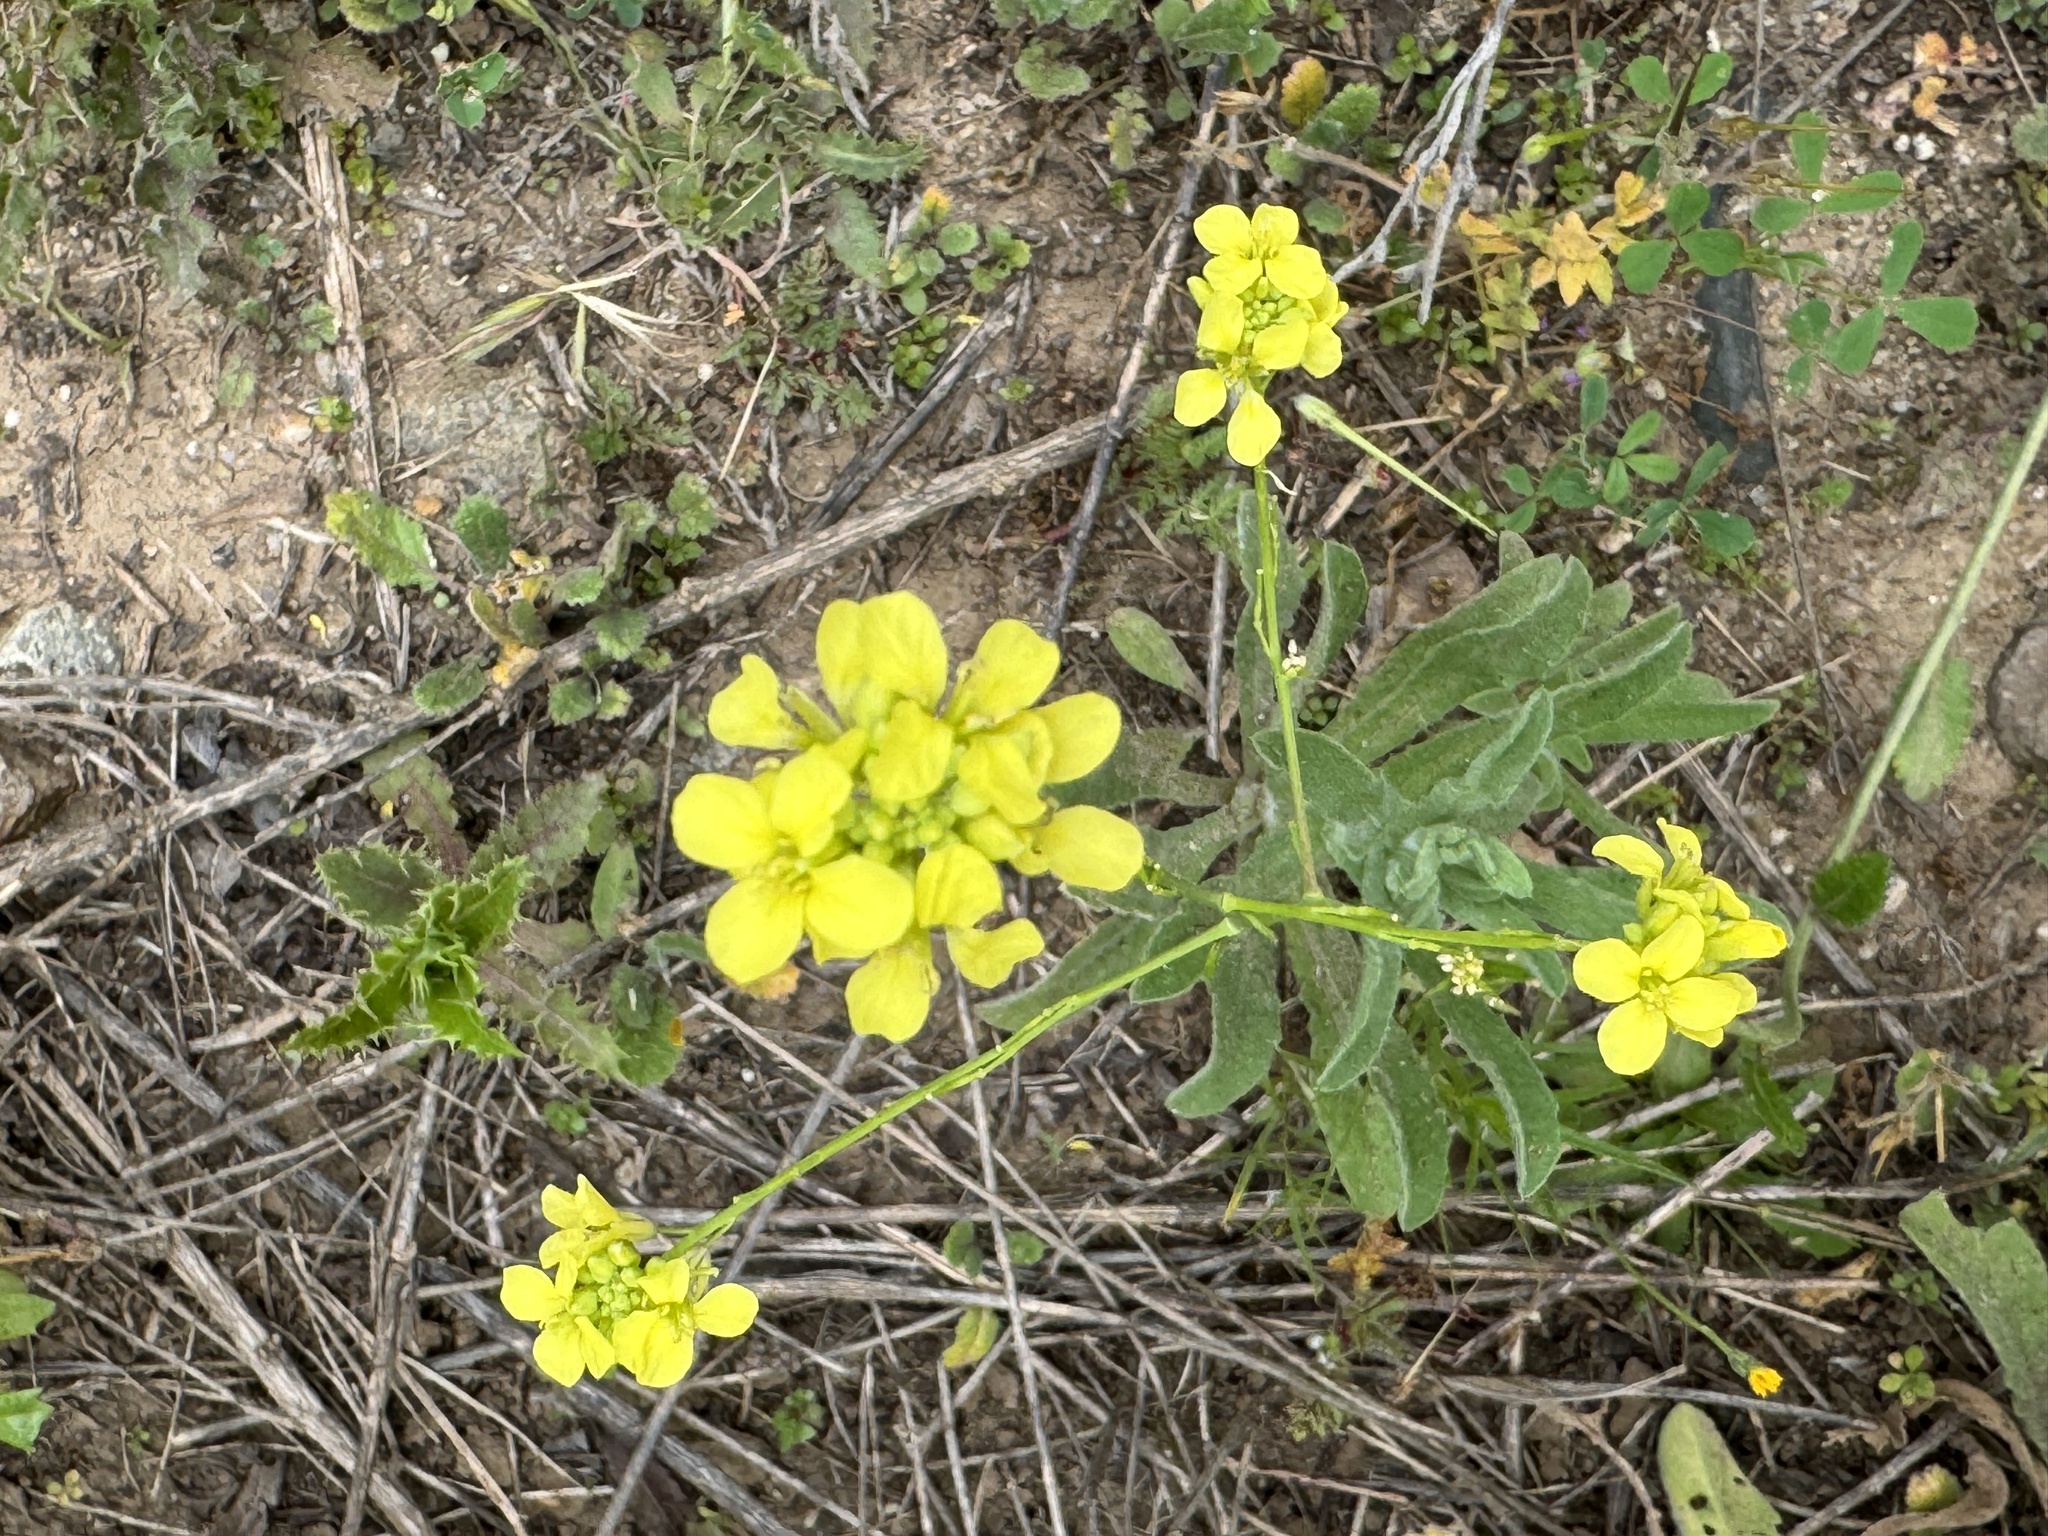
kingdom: Plantae
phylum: Tracheophyta
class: Magnoliopsida
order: Brassicales
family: Brassicaceae
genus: Hirschfeldia
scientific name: Hirschfeldia incana
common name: Hoary mustard
